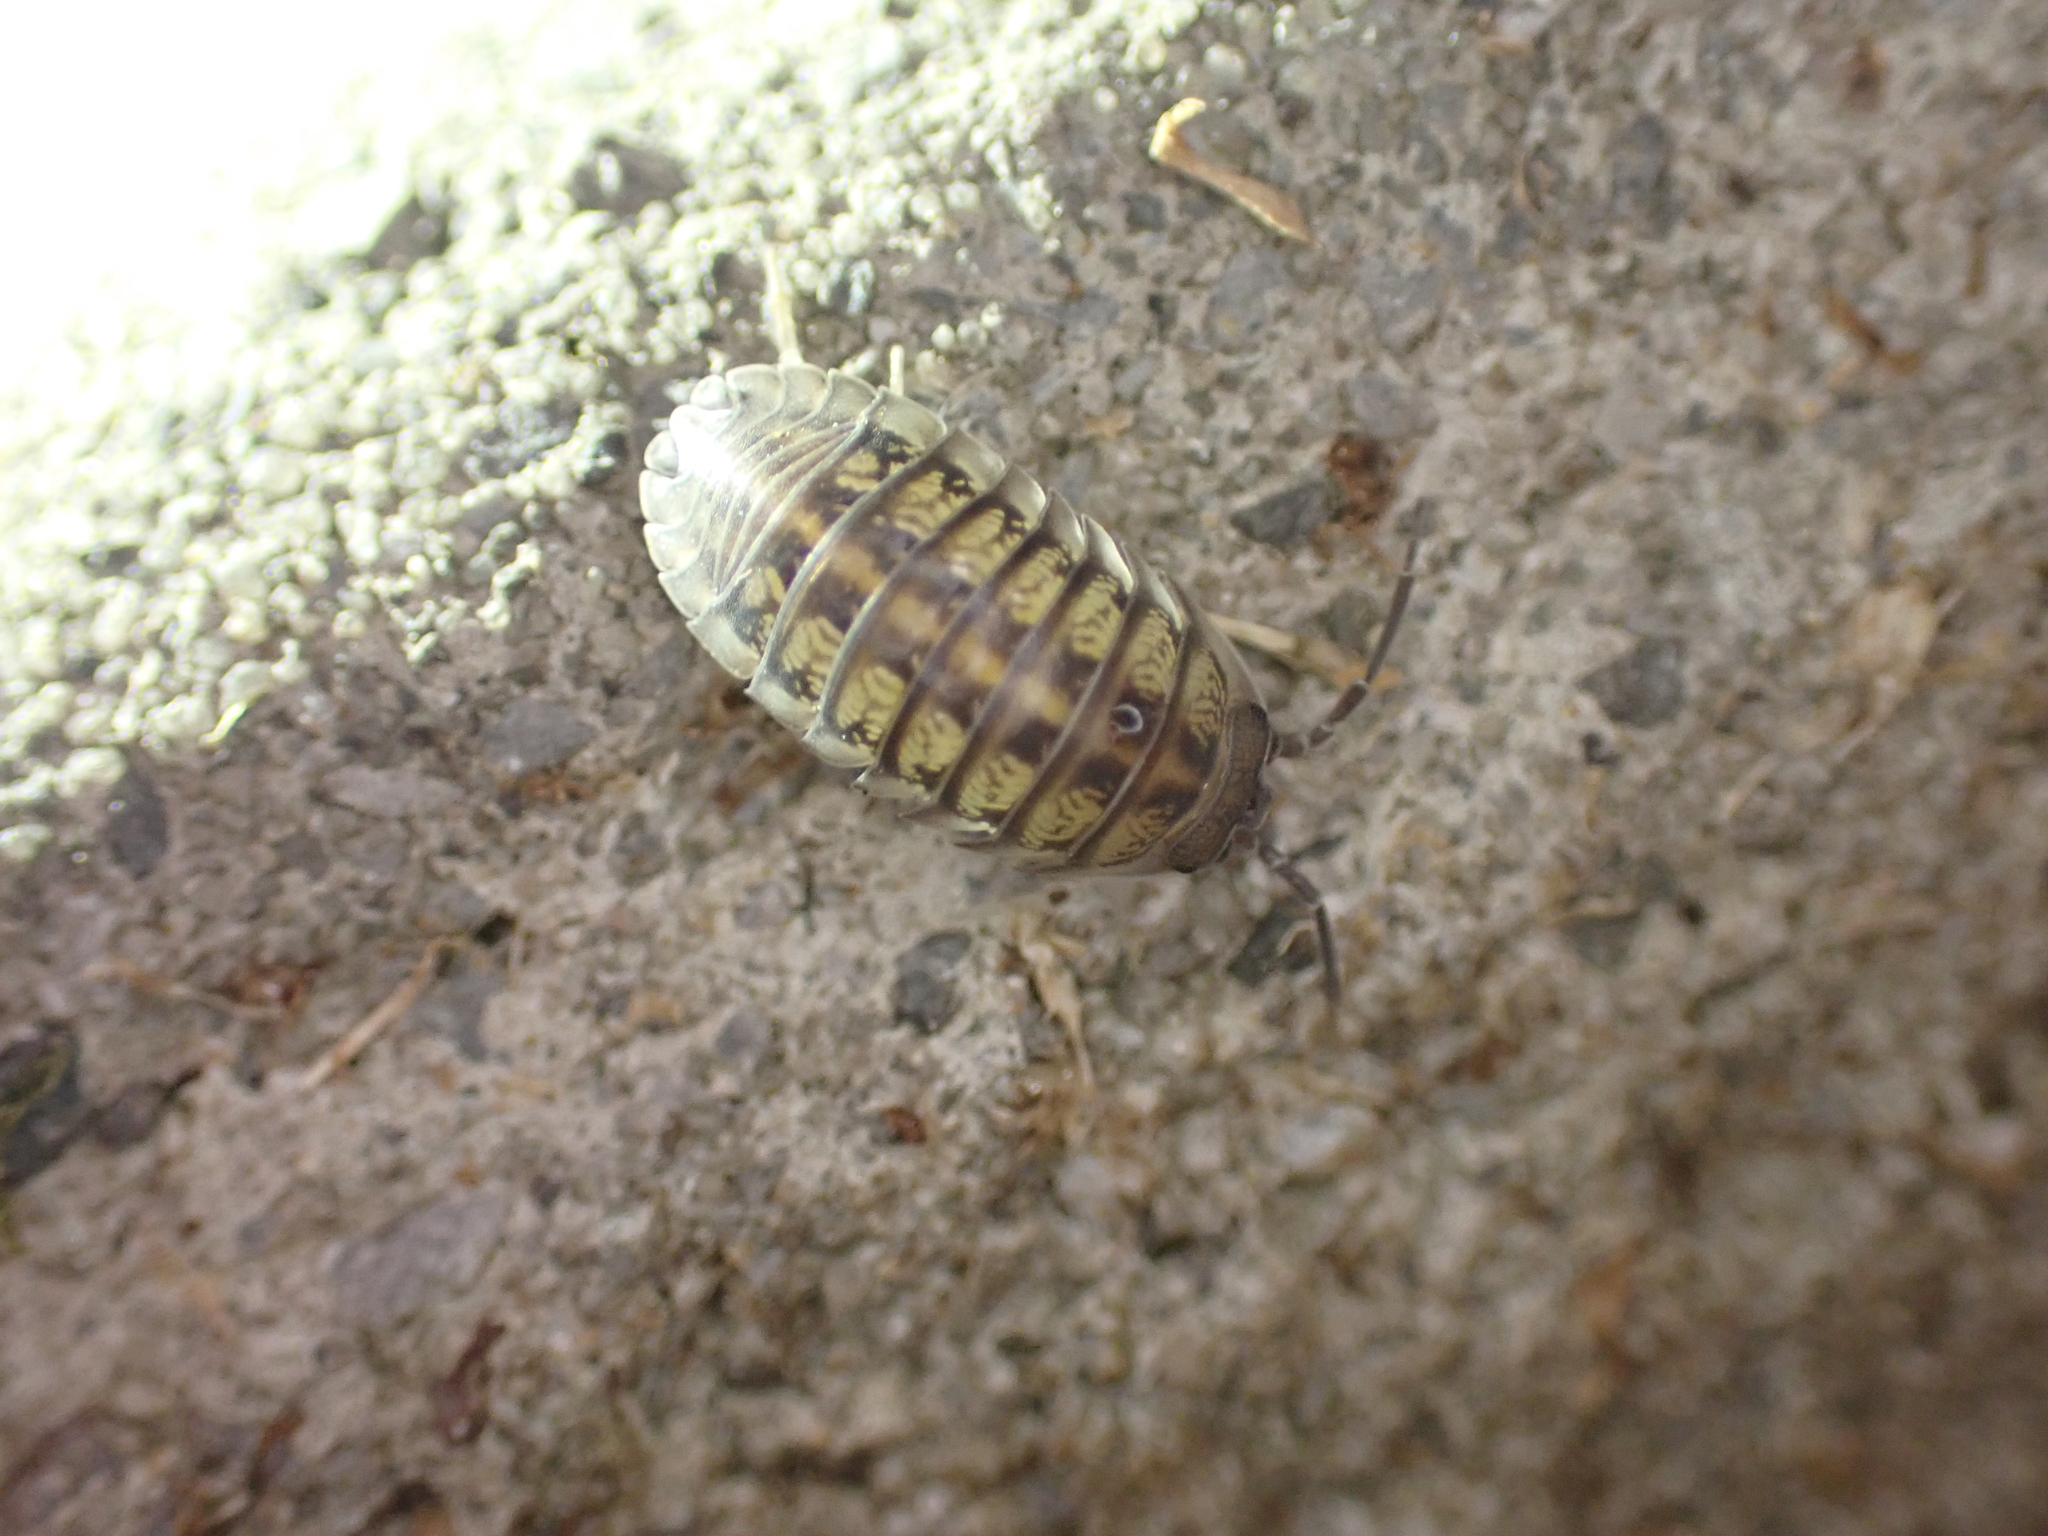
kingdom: Animalia
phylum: Arthropoda
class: Malacostraca
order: Isopoda
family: Armadillidiidae
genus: Armadillidium
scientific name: Armadillidium nasatum
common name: Isopod
